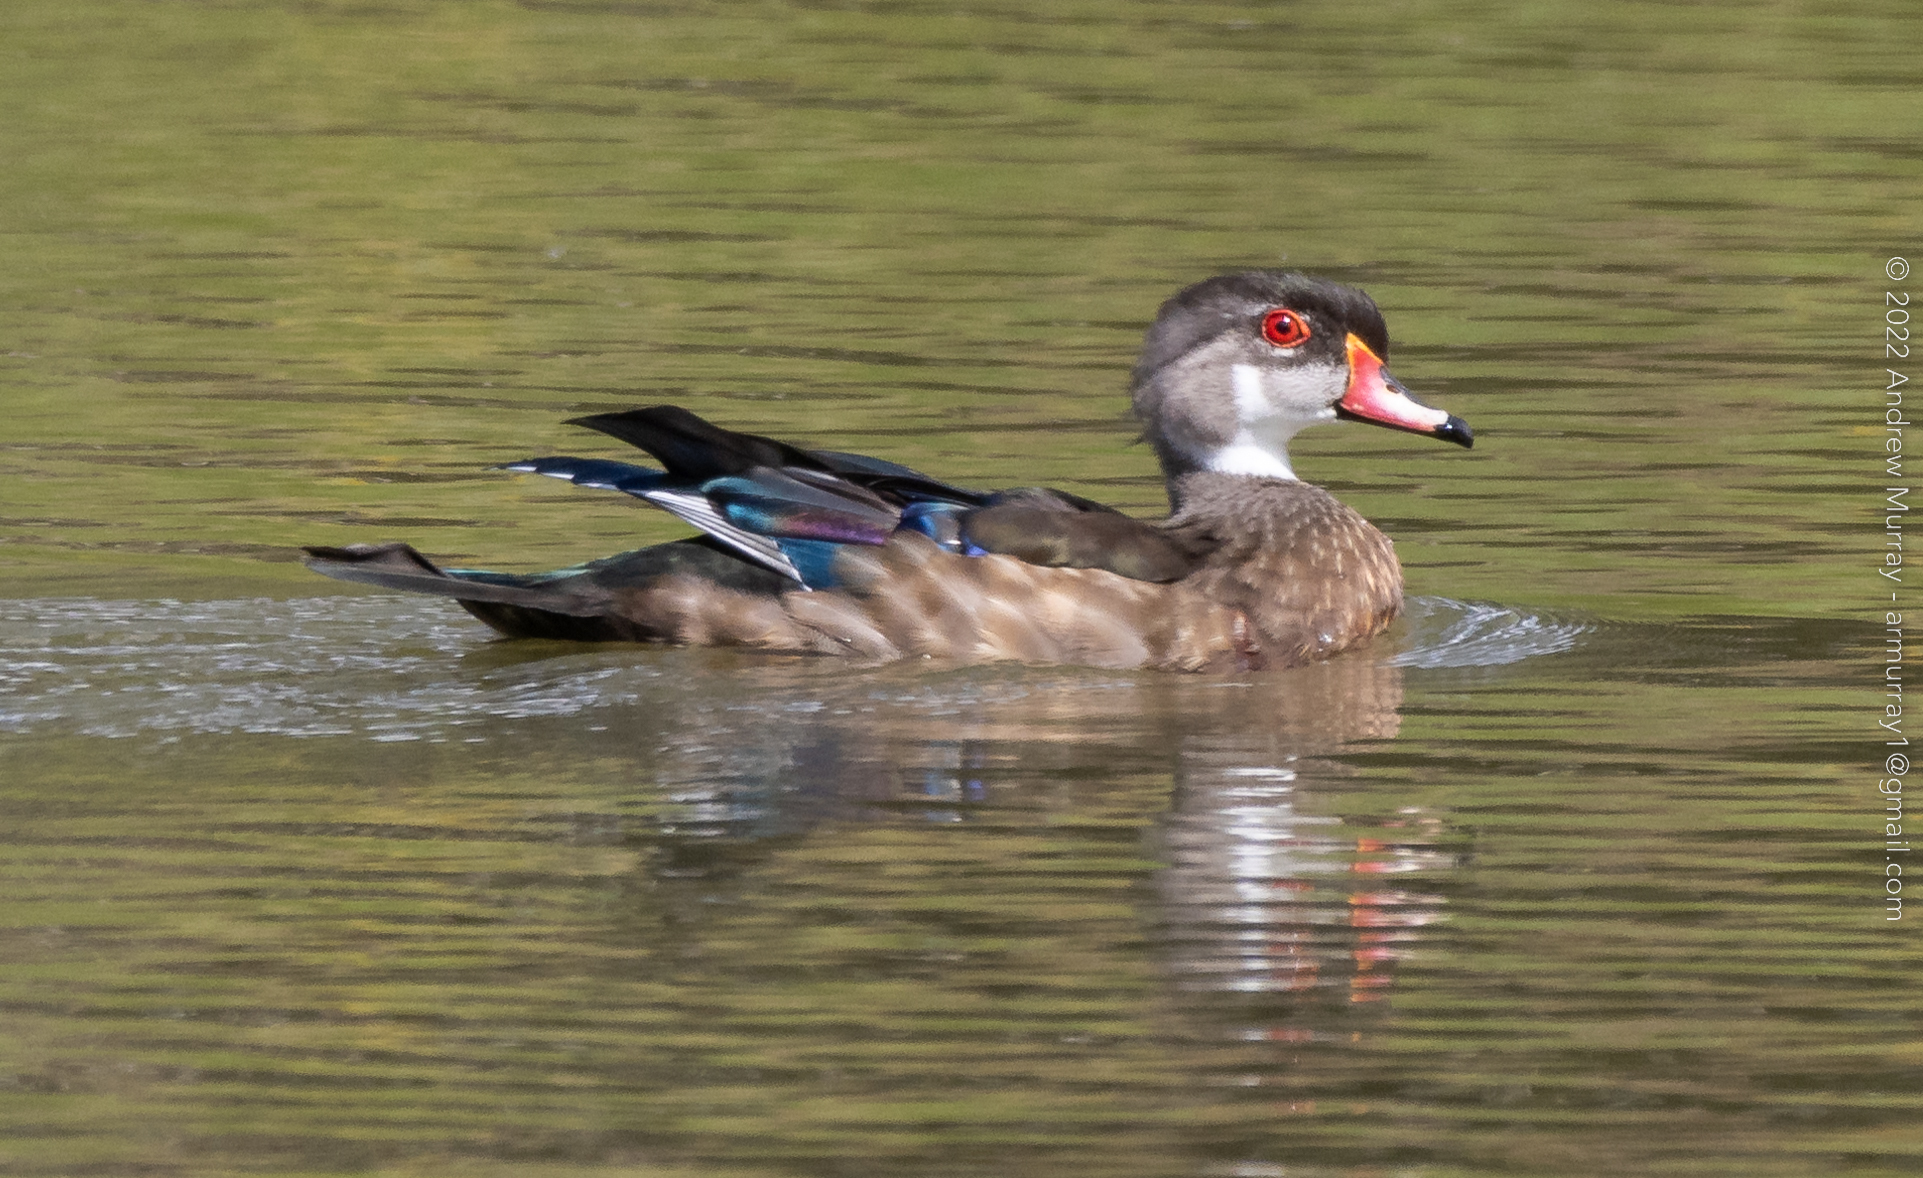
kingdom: Animalia
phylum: Chordata
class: Aves
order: Anseriformes
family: Anatidae
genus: Aix
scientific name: Aix sponsa
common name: Wood duck
